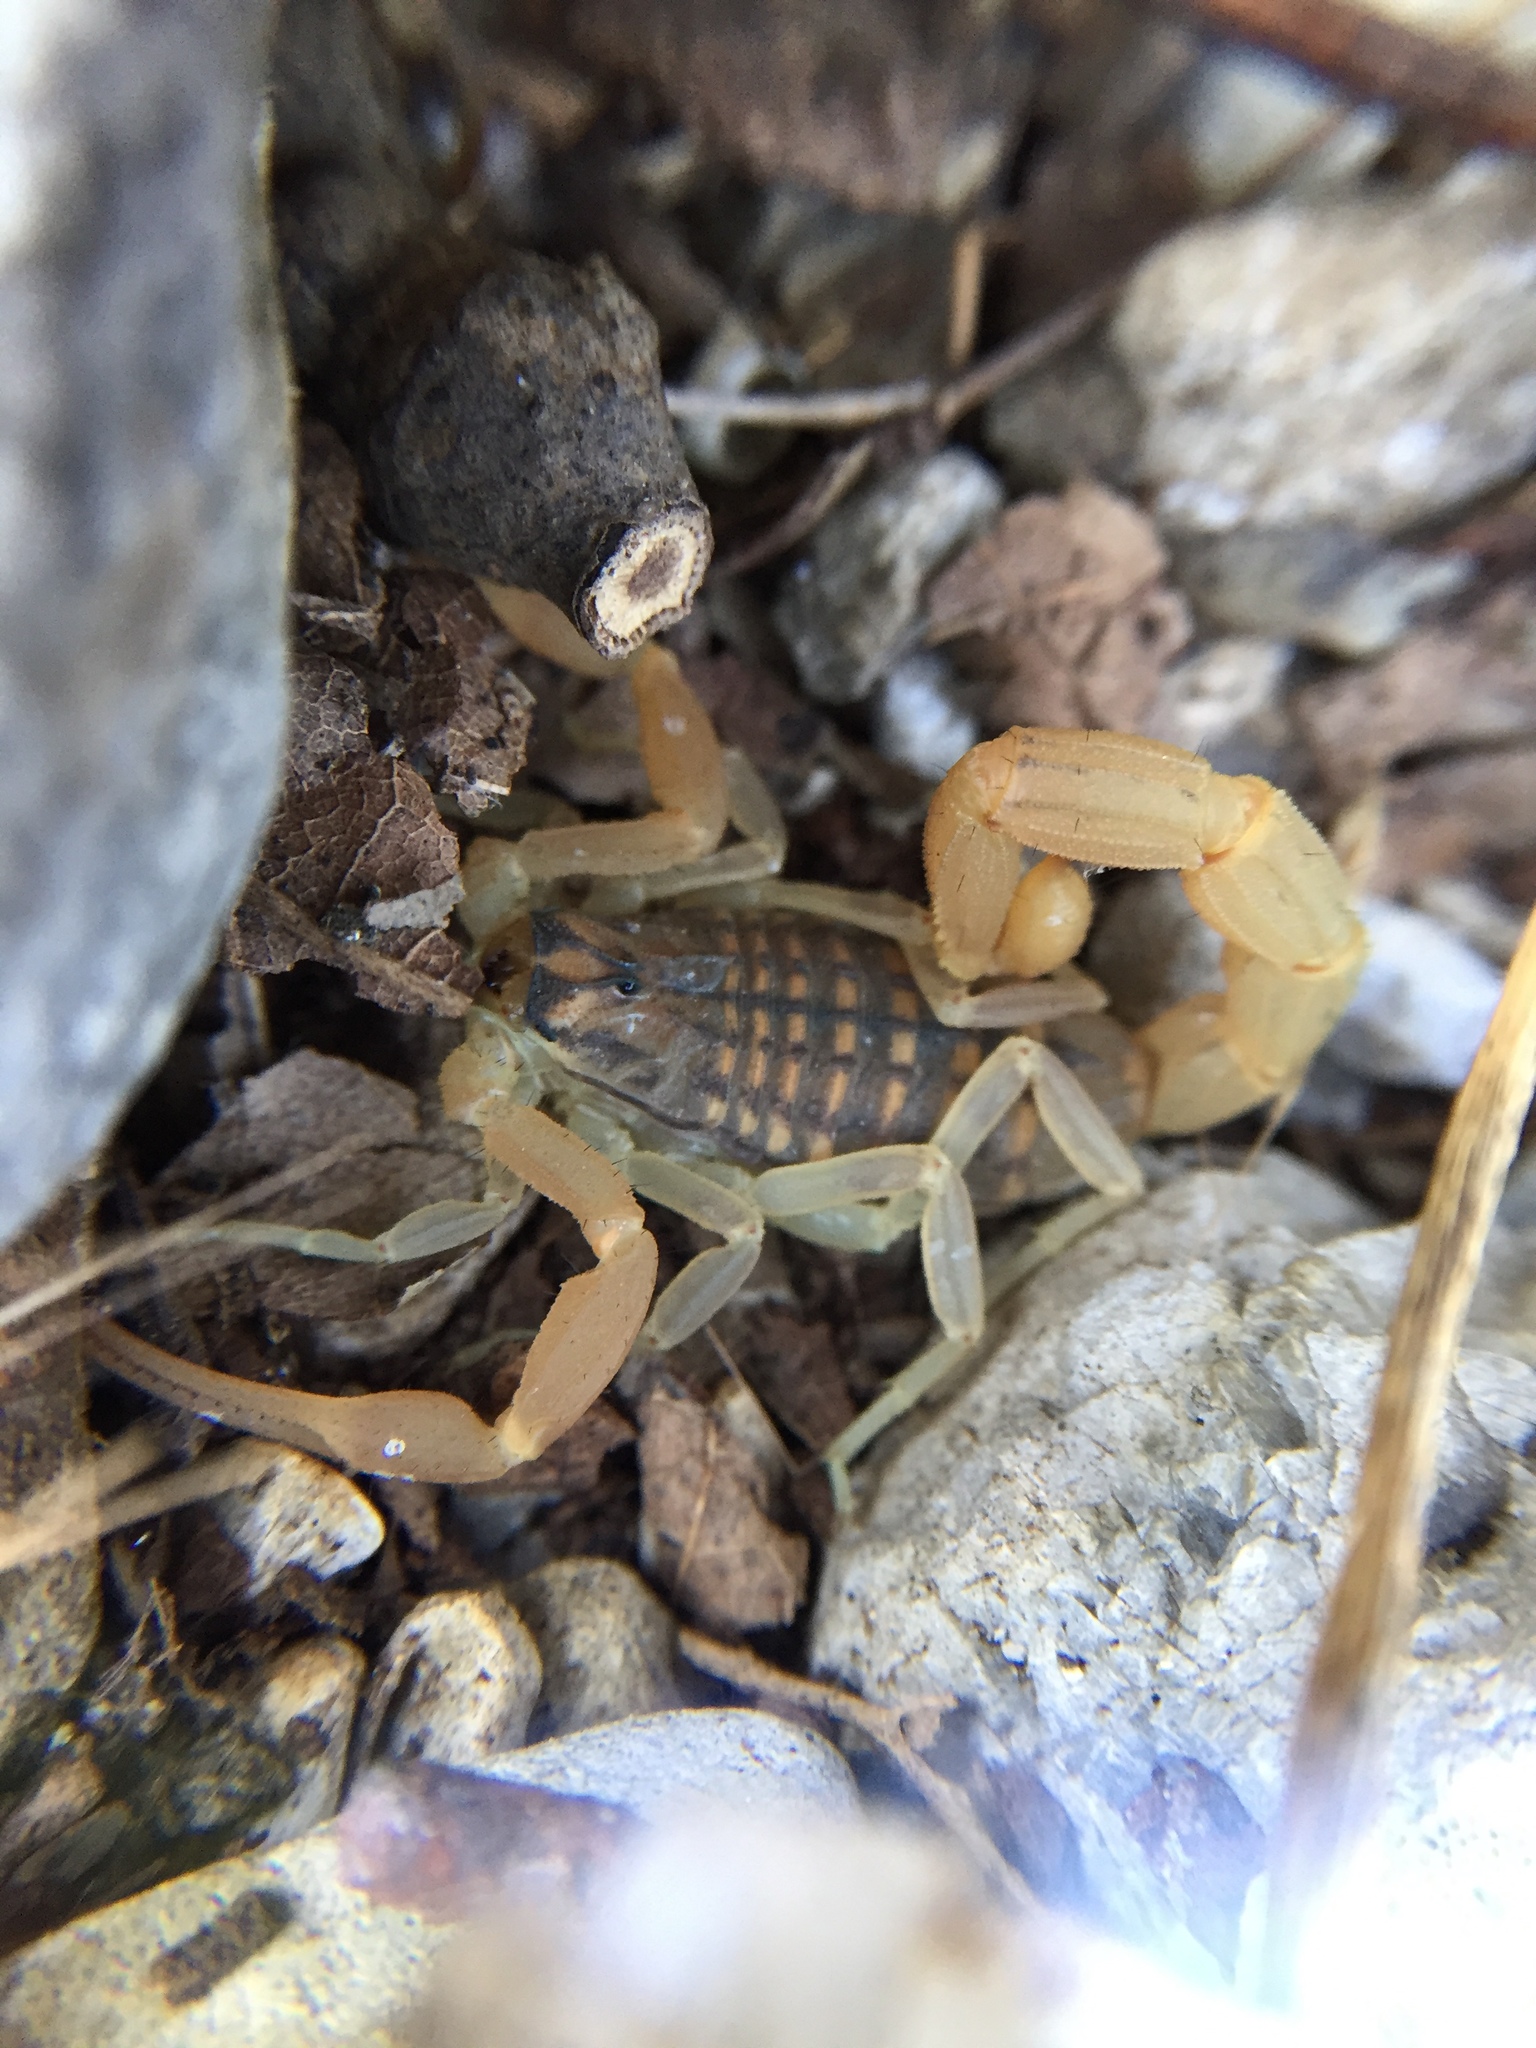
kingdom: Animalia
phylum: Arthropoda
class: Arachnida
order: Scorpiones
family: Buthidae
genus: Aegaeobuthus
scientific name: Aegaeobuthus gibbosus
